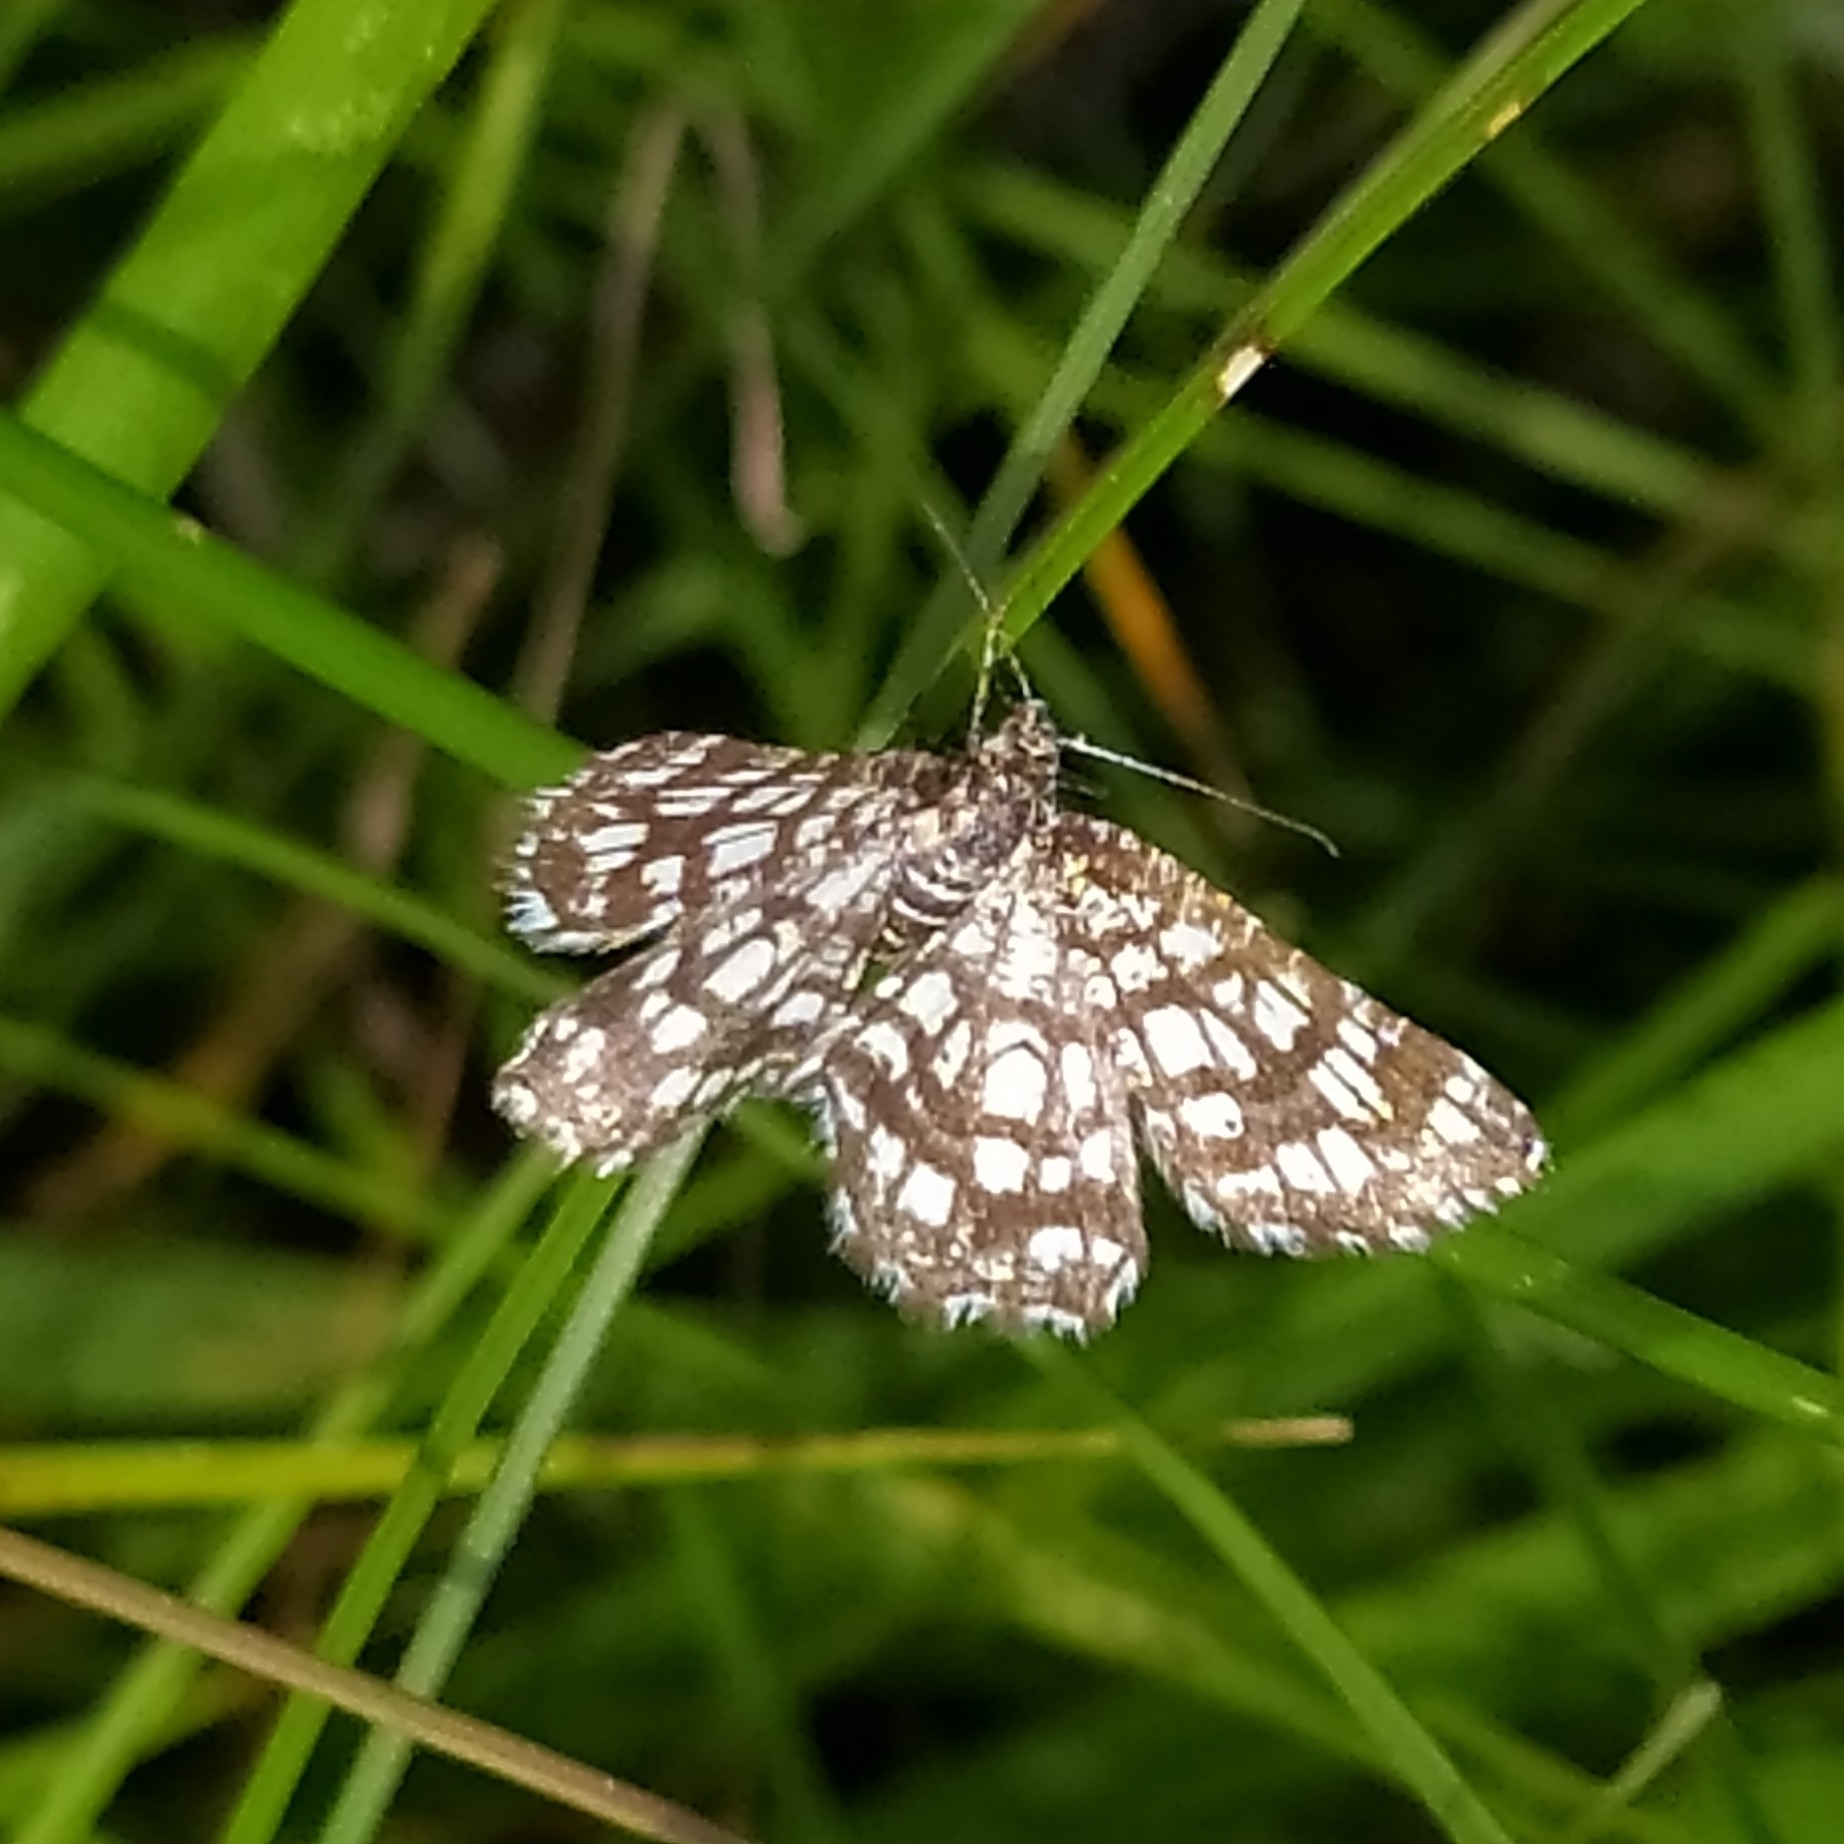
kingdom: Animalia
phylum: Arthropoda
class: Insecta
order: Lepidoptera
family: Geometridae
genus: Chiasmia
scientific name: Chiasmia clathrata
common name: Latticed heath
